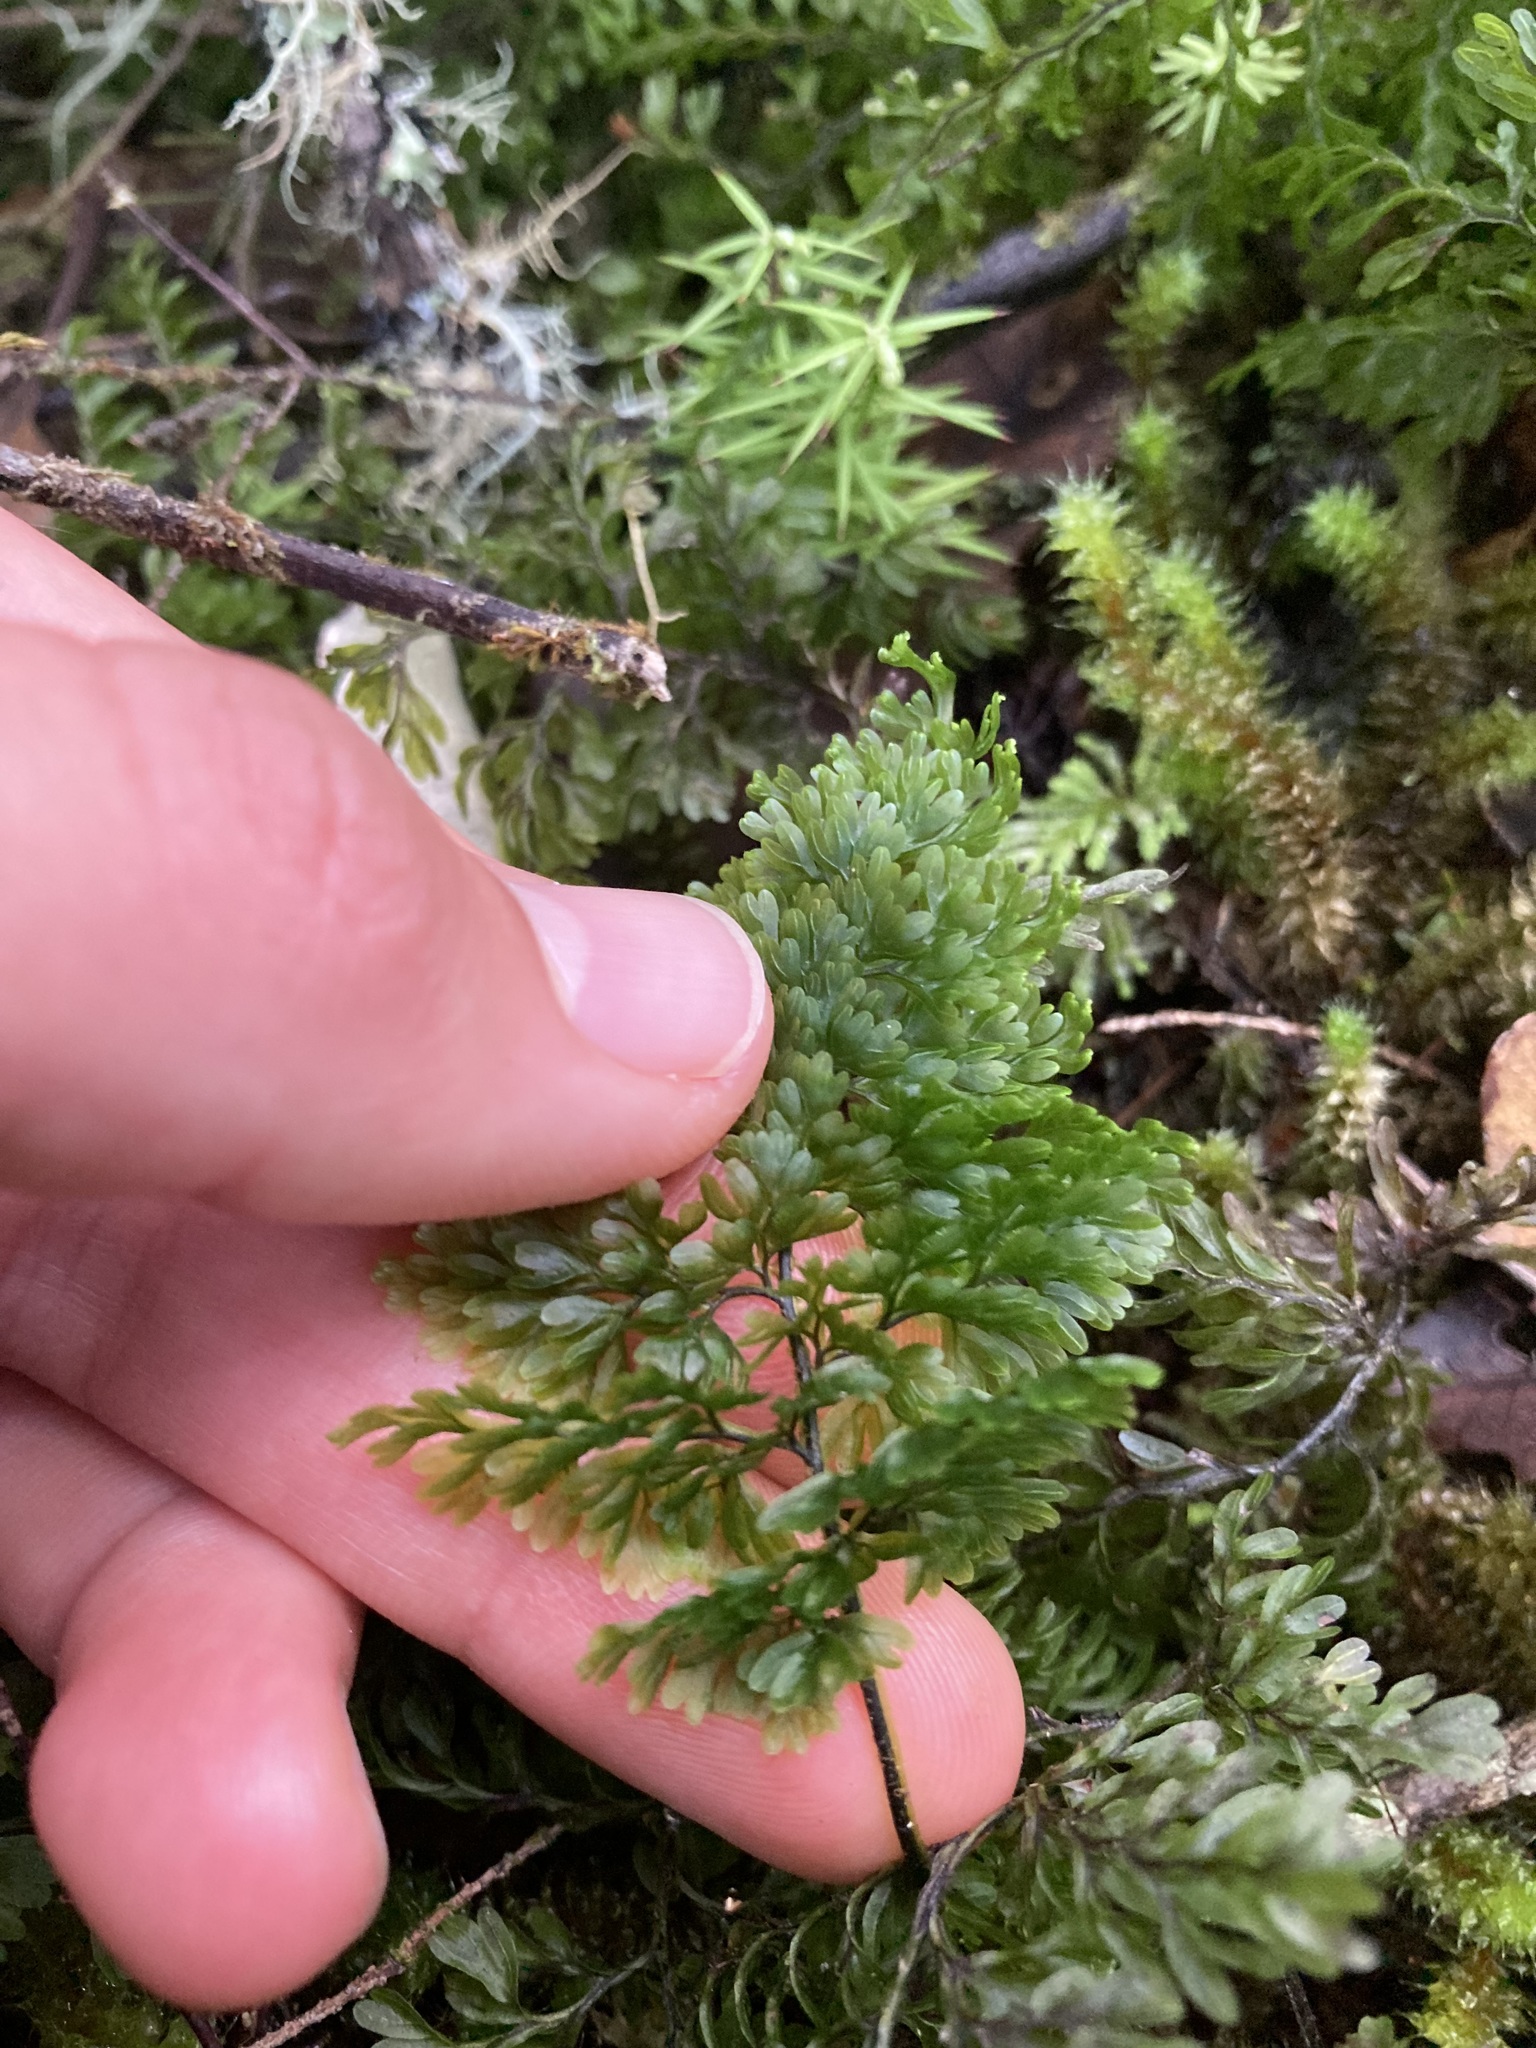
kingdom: Plantae
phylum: Tracheophyta
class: Polypodiopsida
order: Hymenophyllales
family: Hymenophyllaceae
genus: Hymenophyllum
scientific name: Hymenophyllum sanguinolentum
